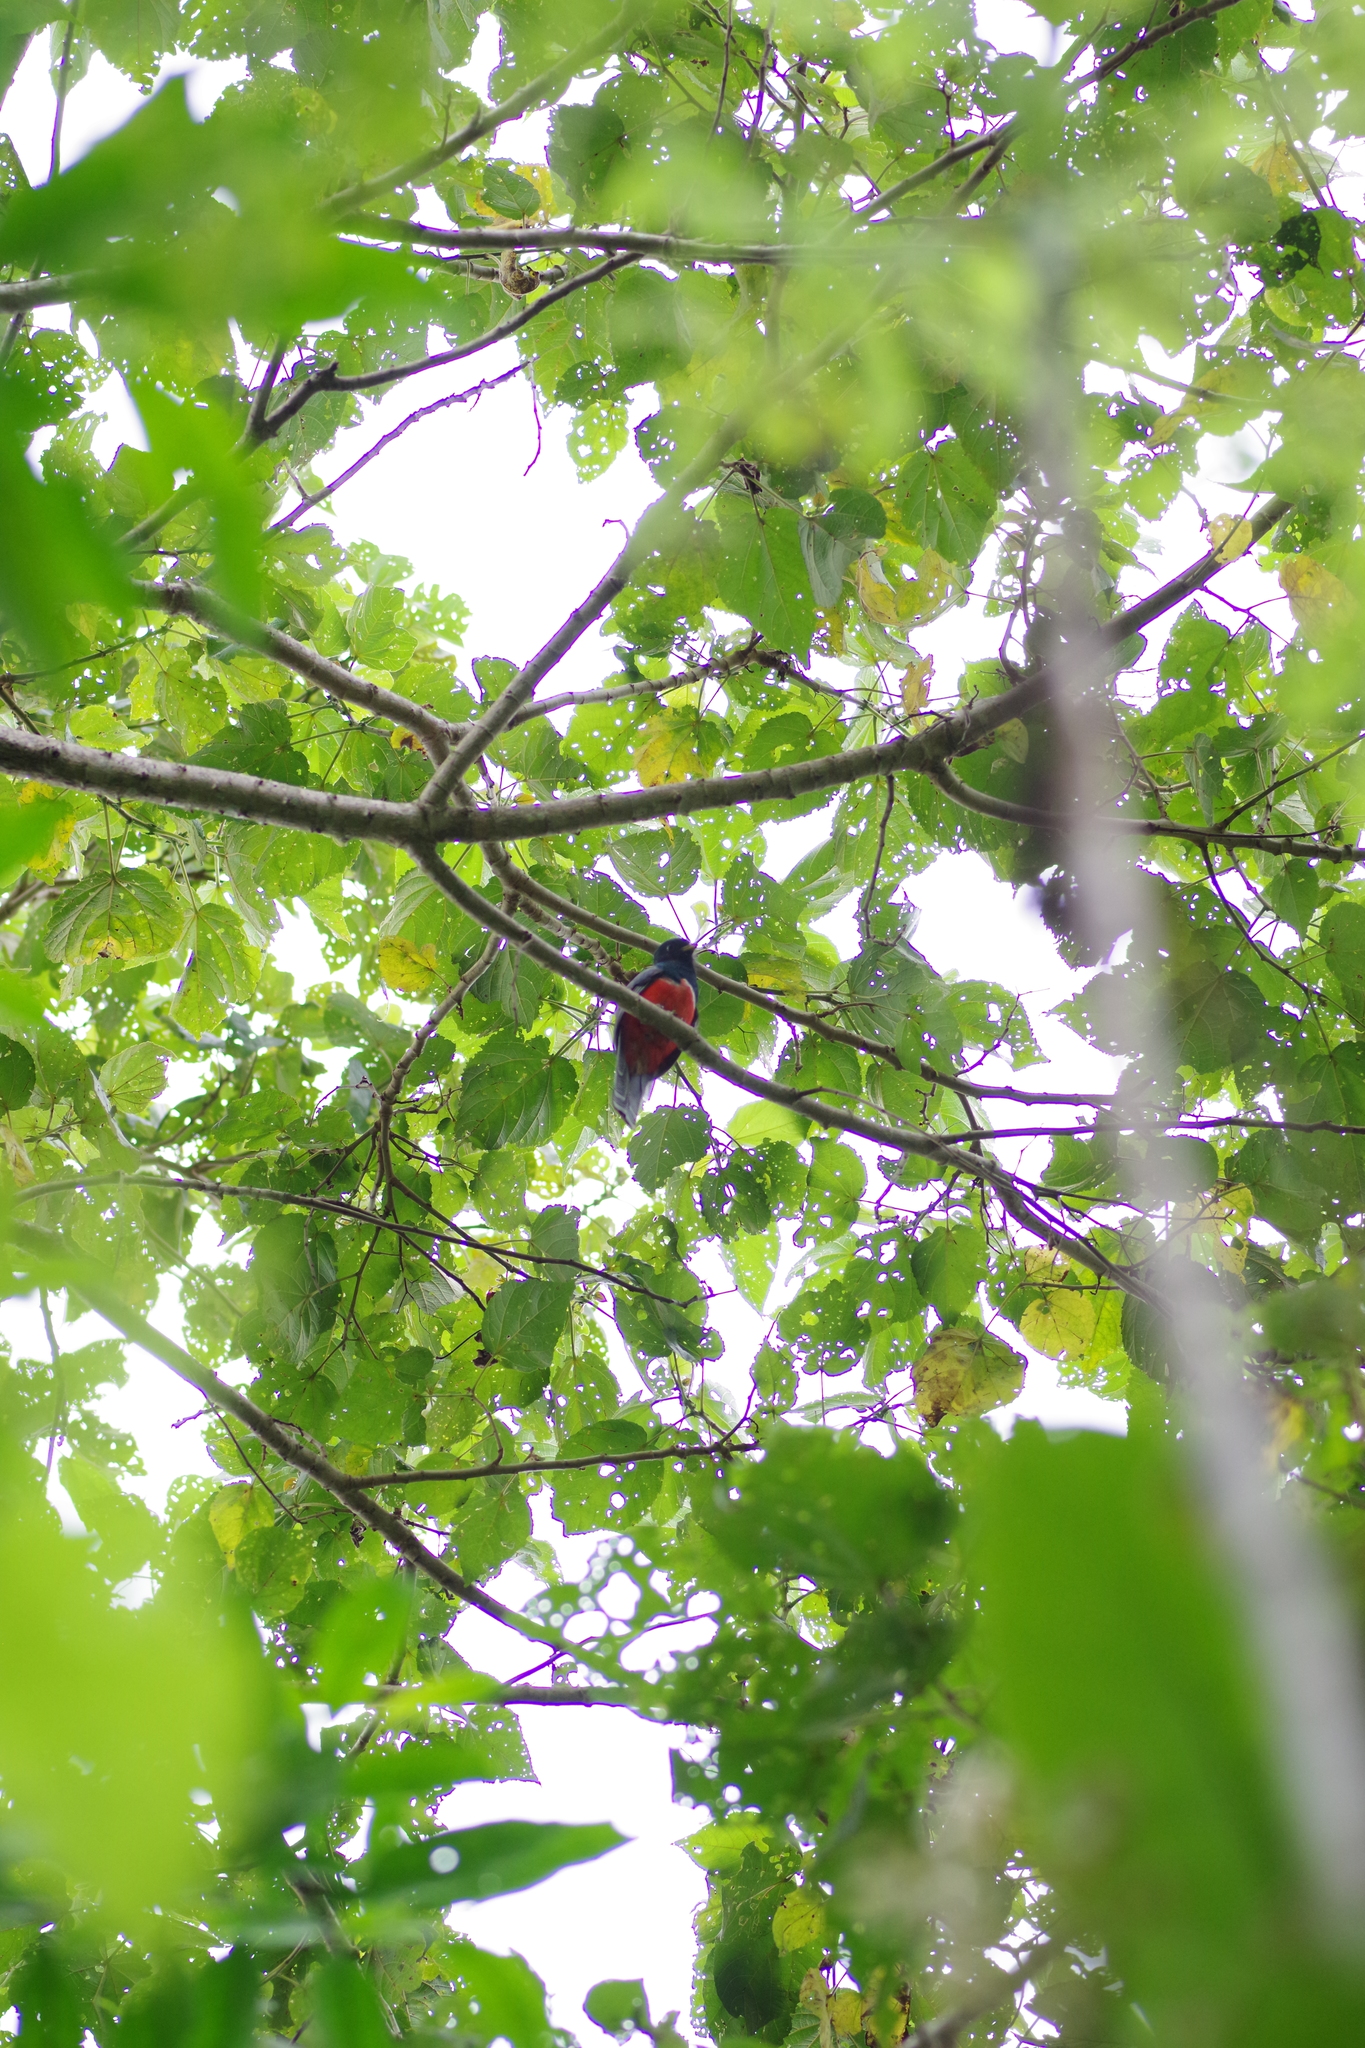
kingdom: Animalia
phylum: Chordata
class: Aves
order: Trogoniformes
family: Trogonidae
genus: Trogon
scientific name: Trogon collaris
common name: Collared trogon
